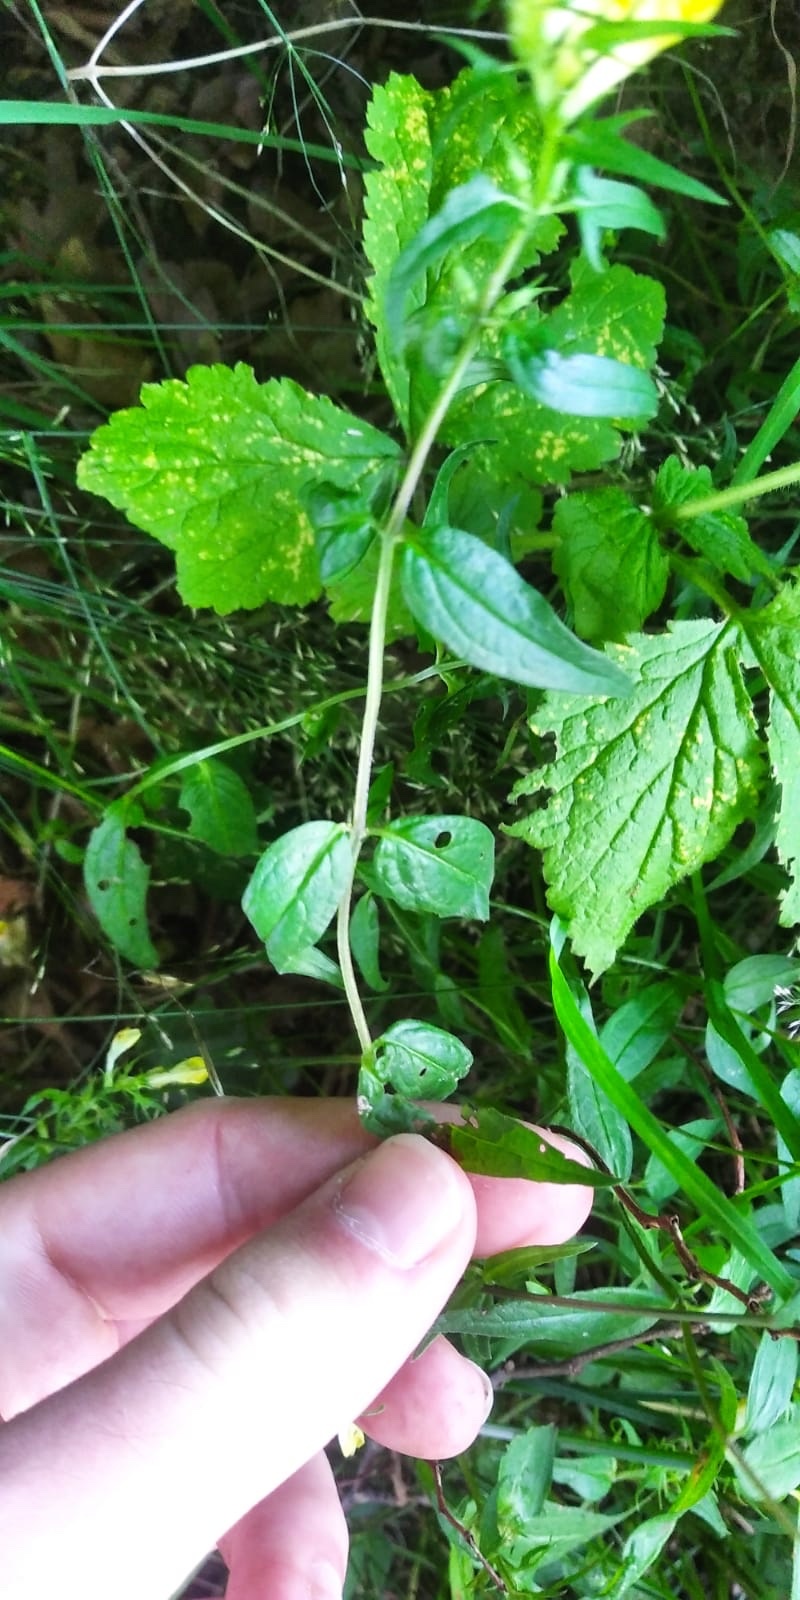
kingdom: Plantae
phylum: Tracheophyta
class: Magnoliopsida
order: Lamiales
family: Orobanchaceae
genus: Melampyrum
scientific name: Melampyrum pratense
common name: Common cow-wheat
